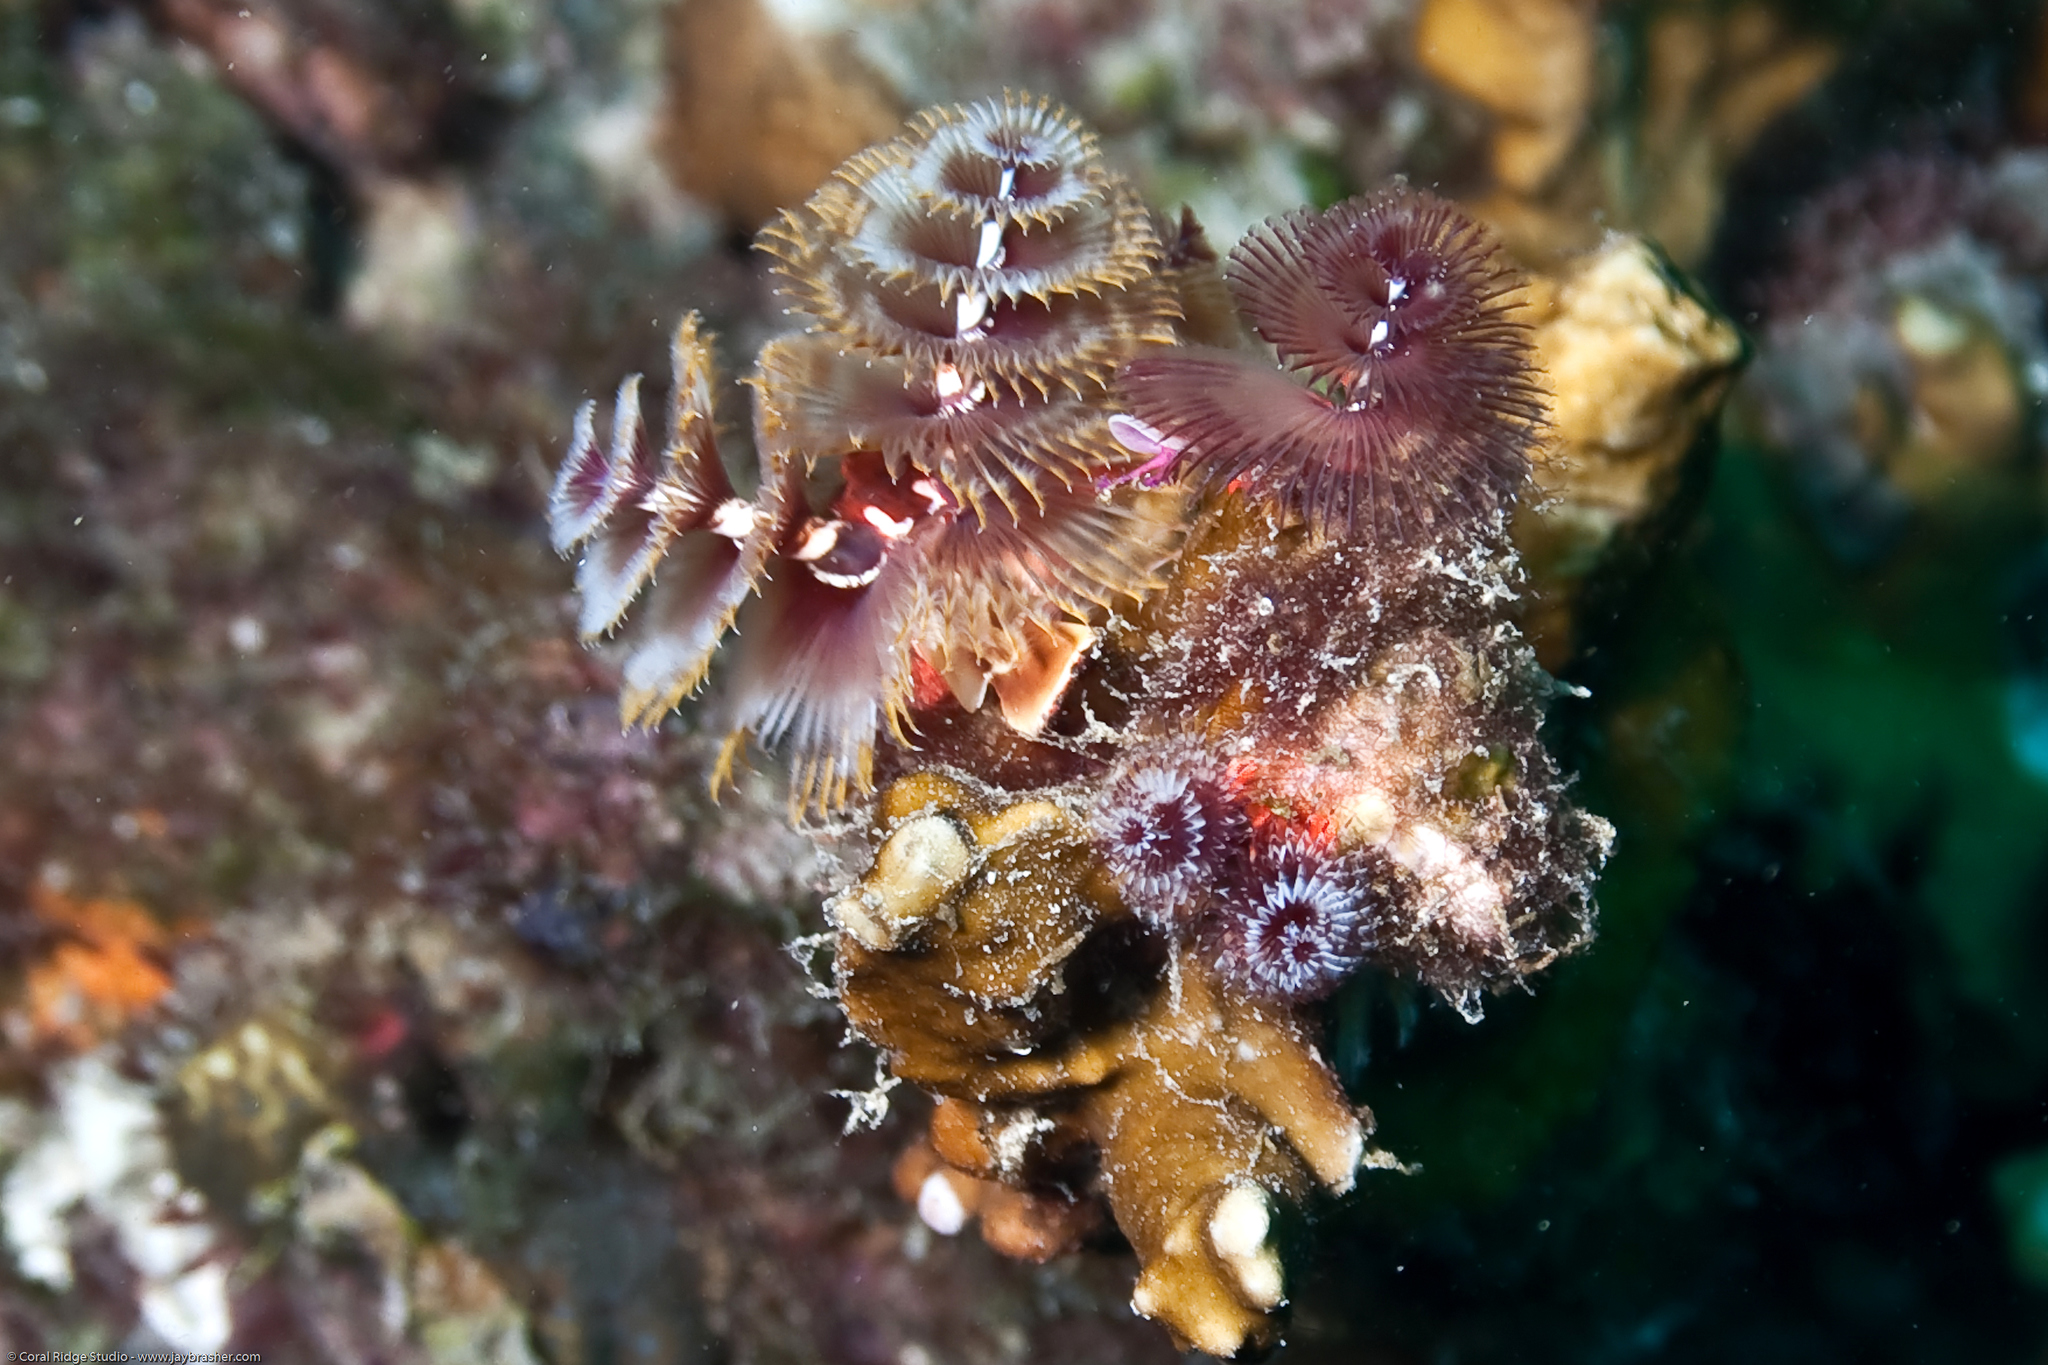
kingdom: Animalia
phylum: Annelida
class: Polychaeta
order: Sabellida
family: Serpulidae
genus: Spirobranchus
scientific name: Spirobranchus giganteus
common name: Christmas tree worm
